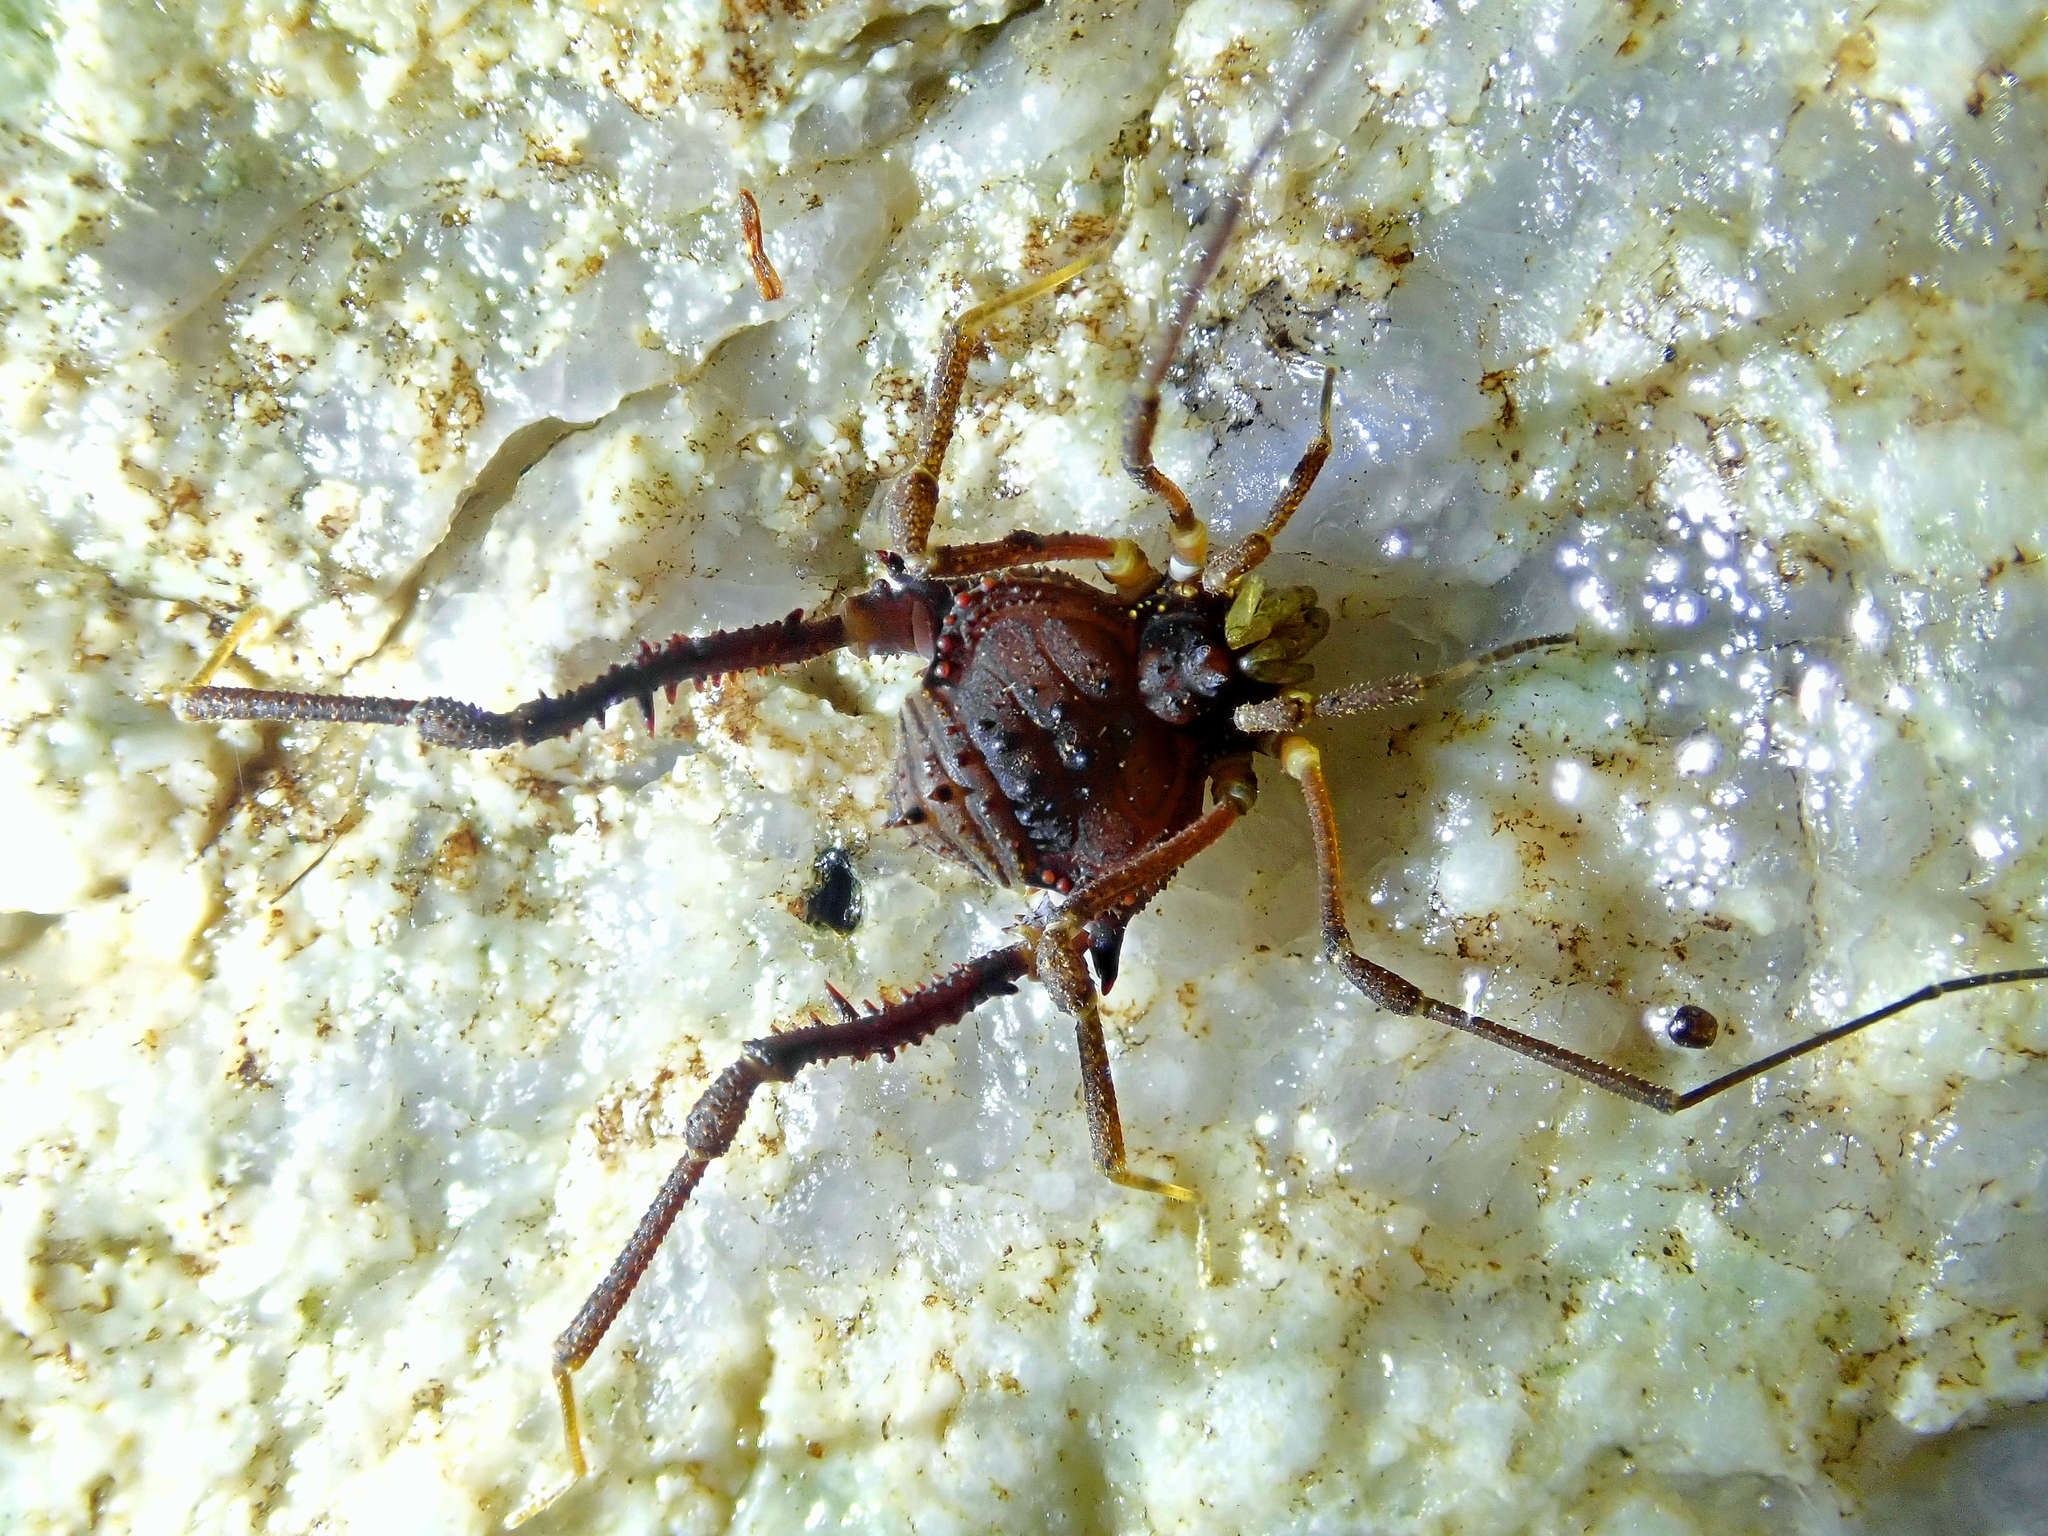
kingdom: Animalia
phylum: Arthropoda
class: Arachnida
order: Opiliones
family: Gonyleptidae
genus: Mischonyx
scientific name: Mischonyx squalidus
